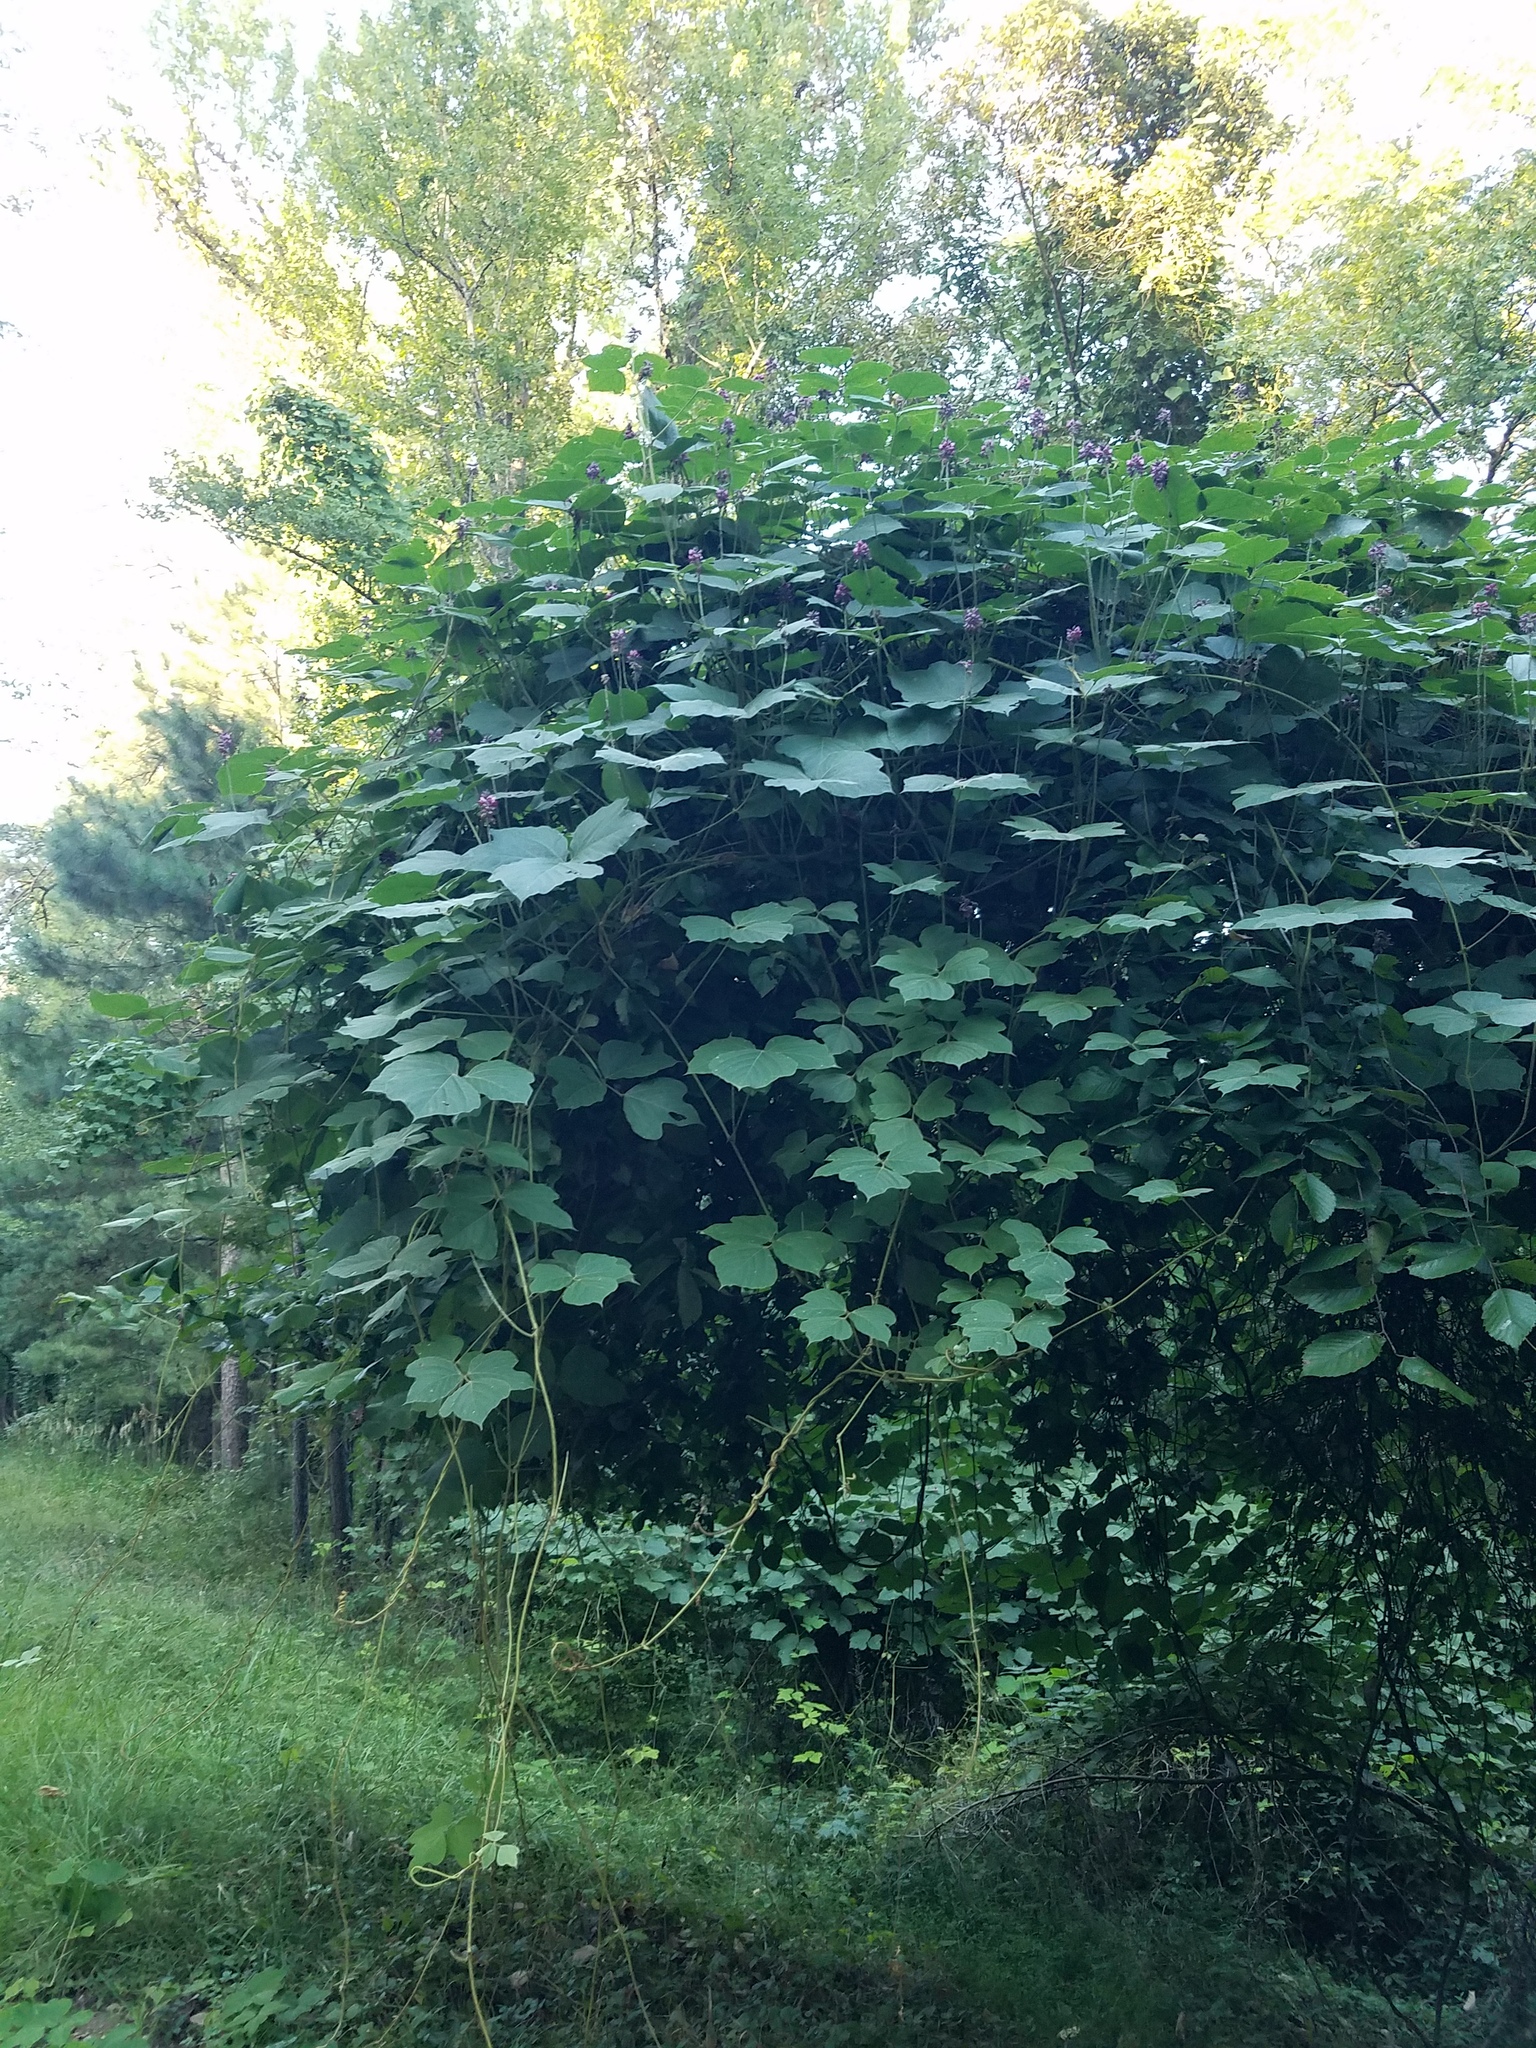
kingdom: Plantae
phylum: Tracheophyta
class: Magnoliopsida
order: Fabales
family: Fabaceae
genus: Pueraria
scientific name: Pueraria montana
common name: Kudzu
